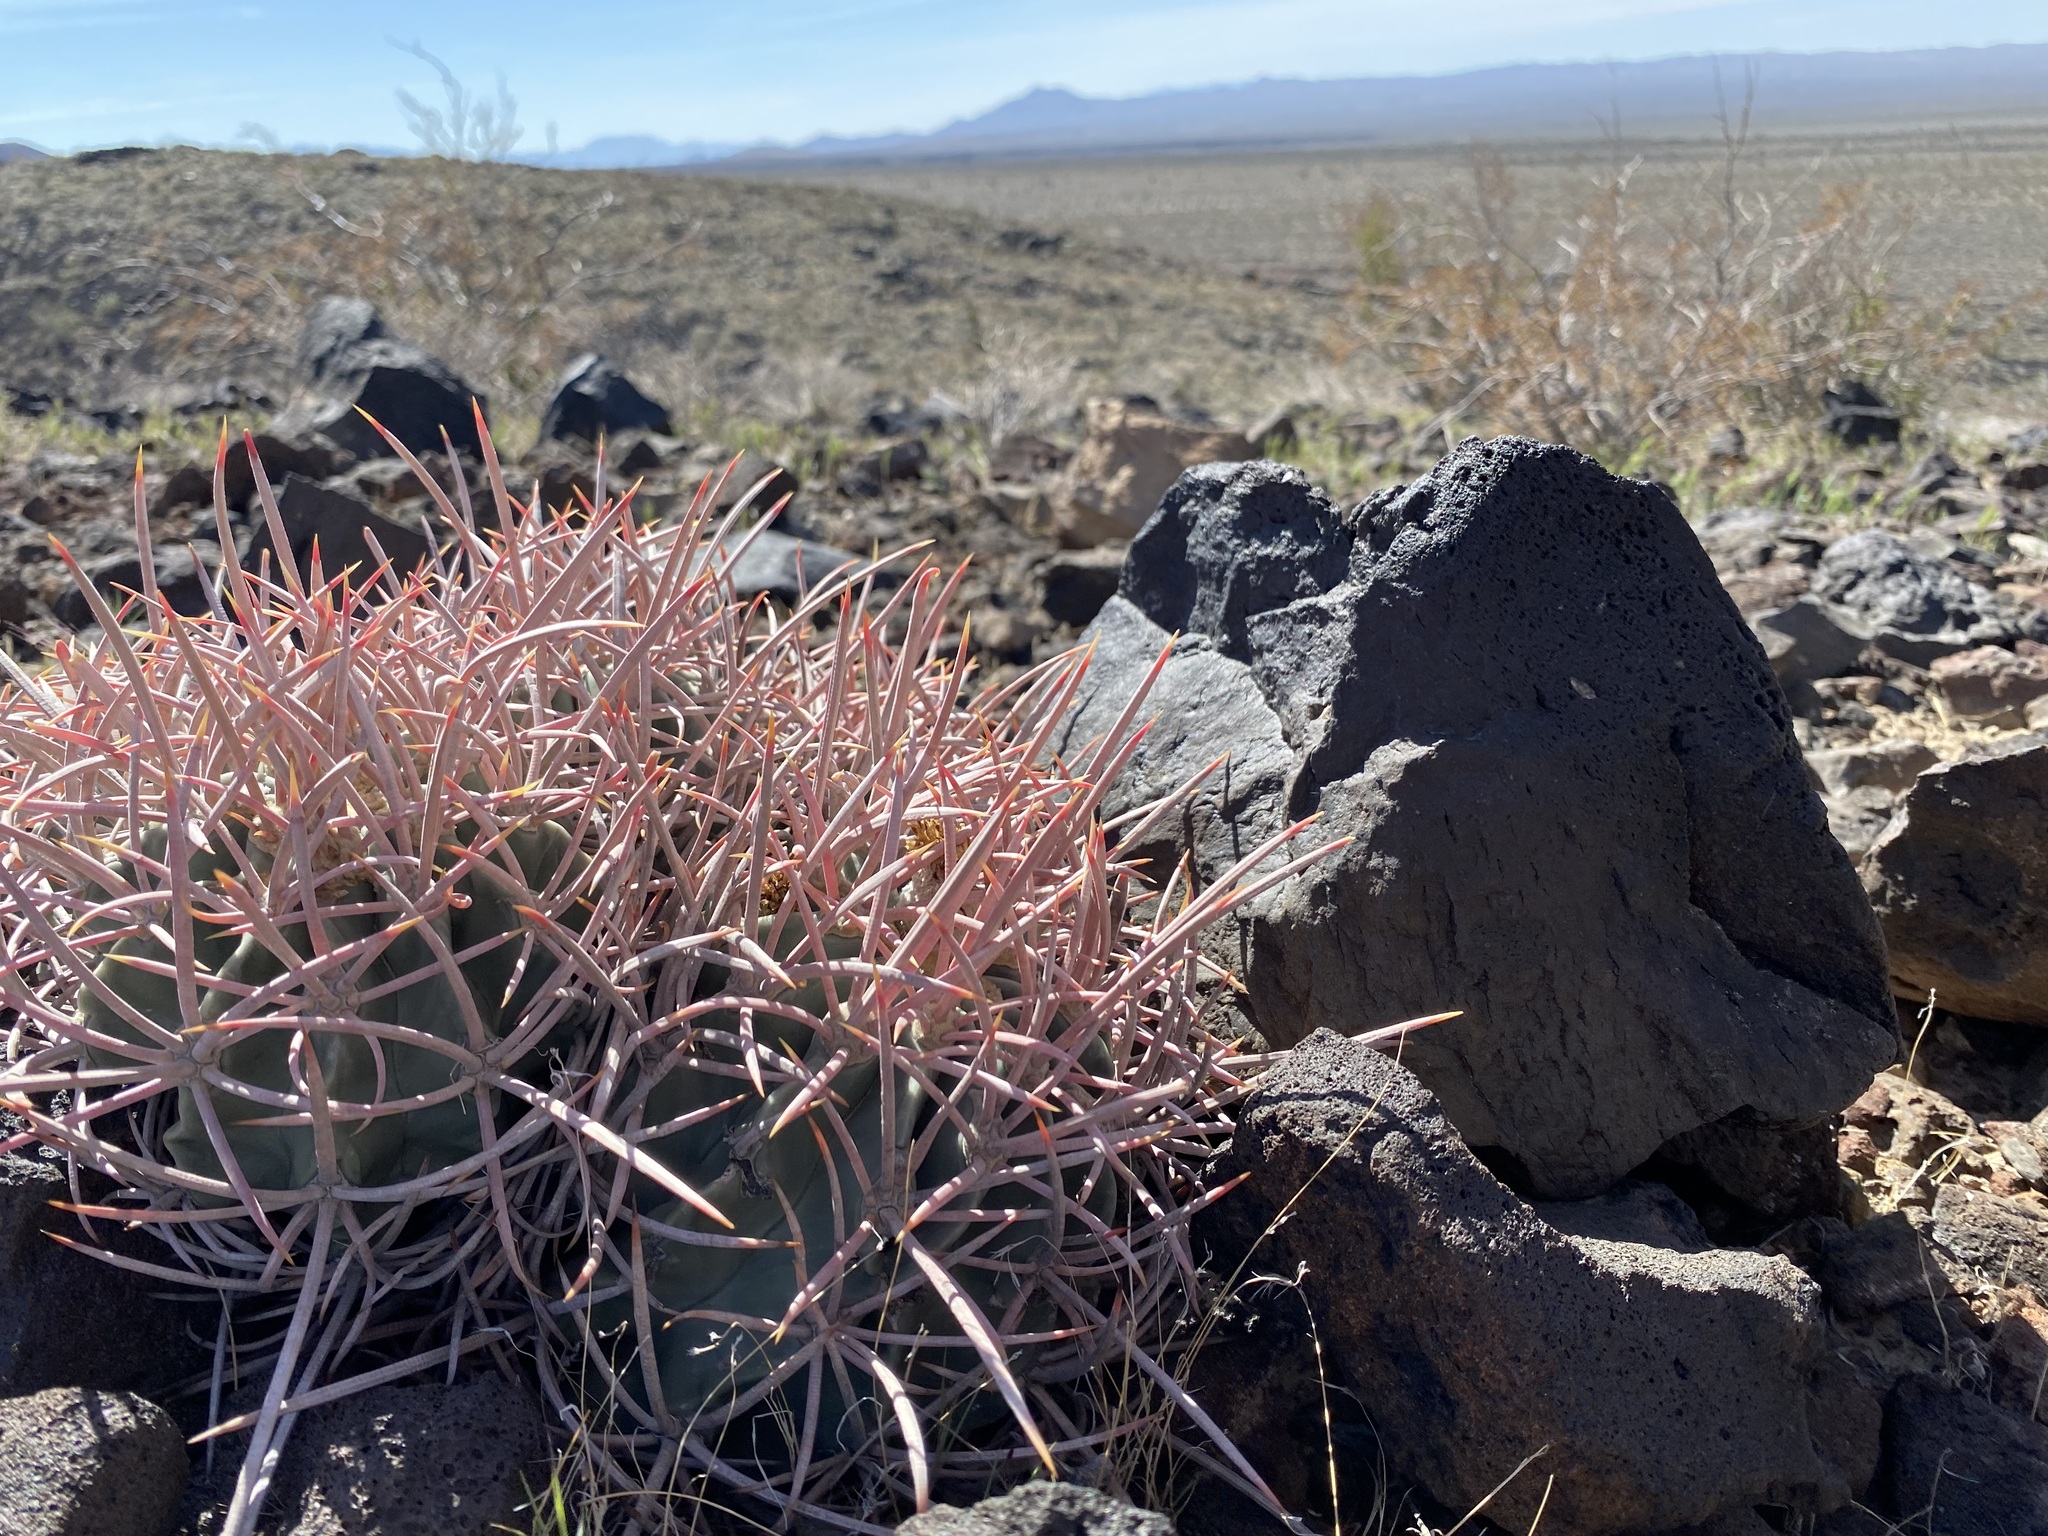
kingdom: Plantae
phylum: Tracheophyta
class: Magnoliopsida
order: Caryophyllales
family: Cactaceae
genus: Echinocactus
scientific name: Echinocactus polycephalus
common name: Cottontop cactus
